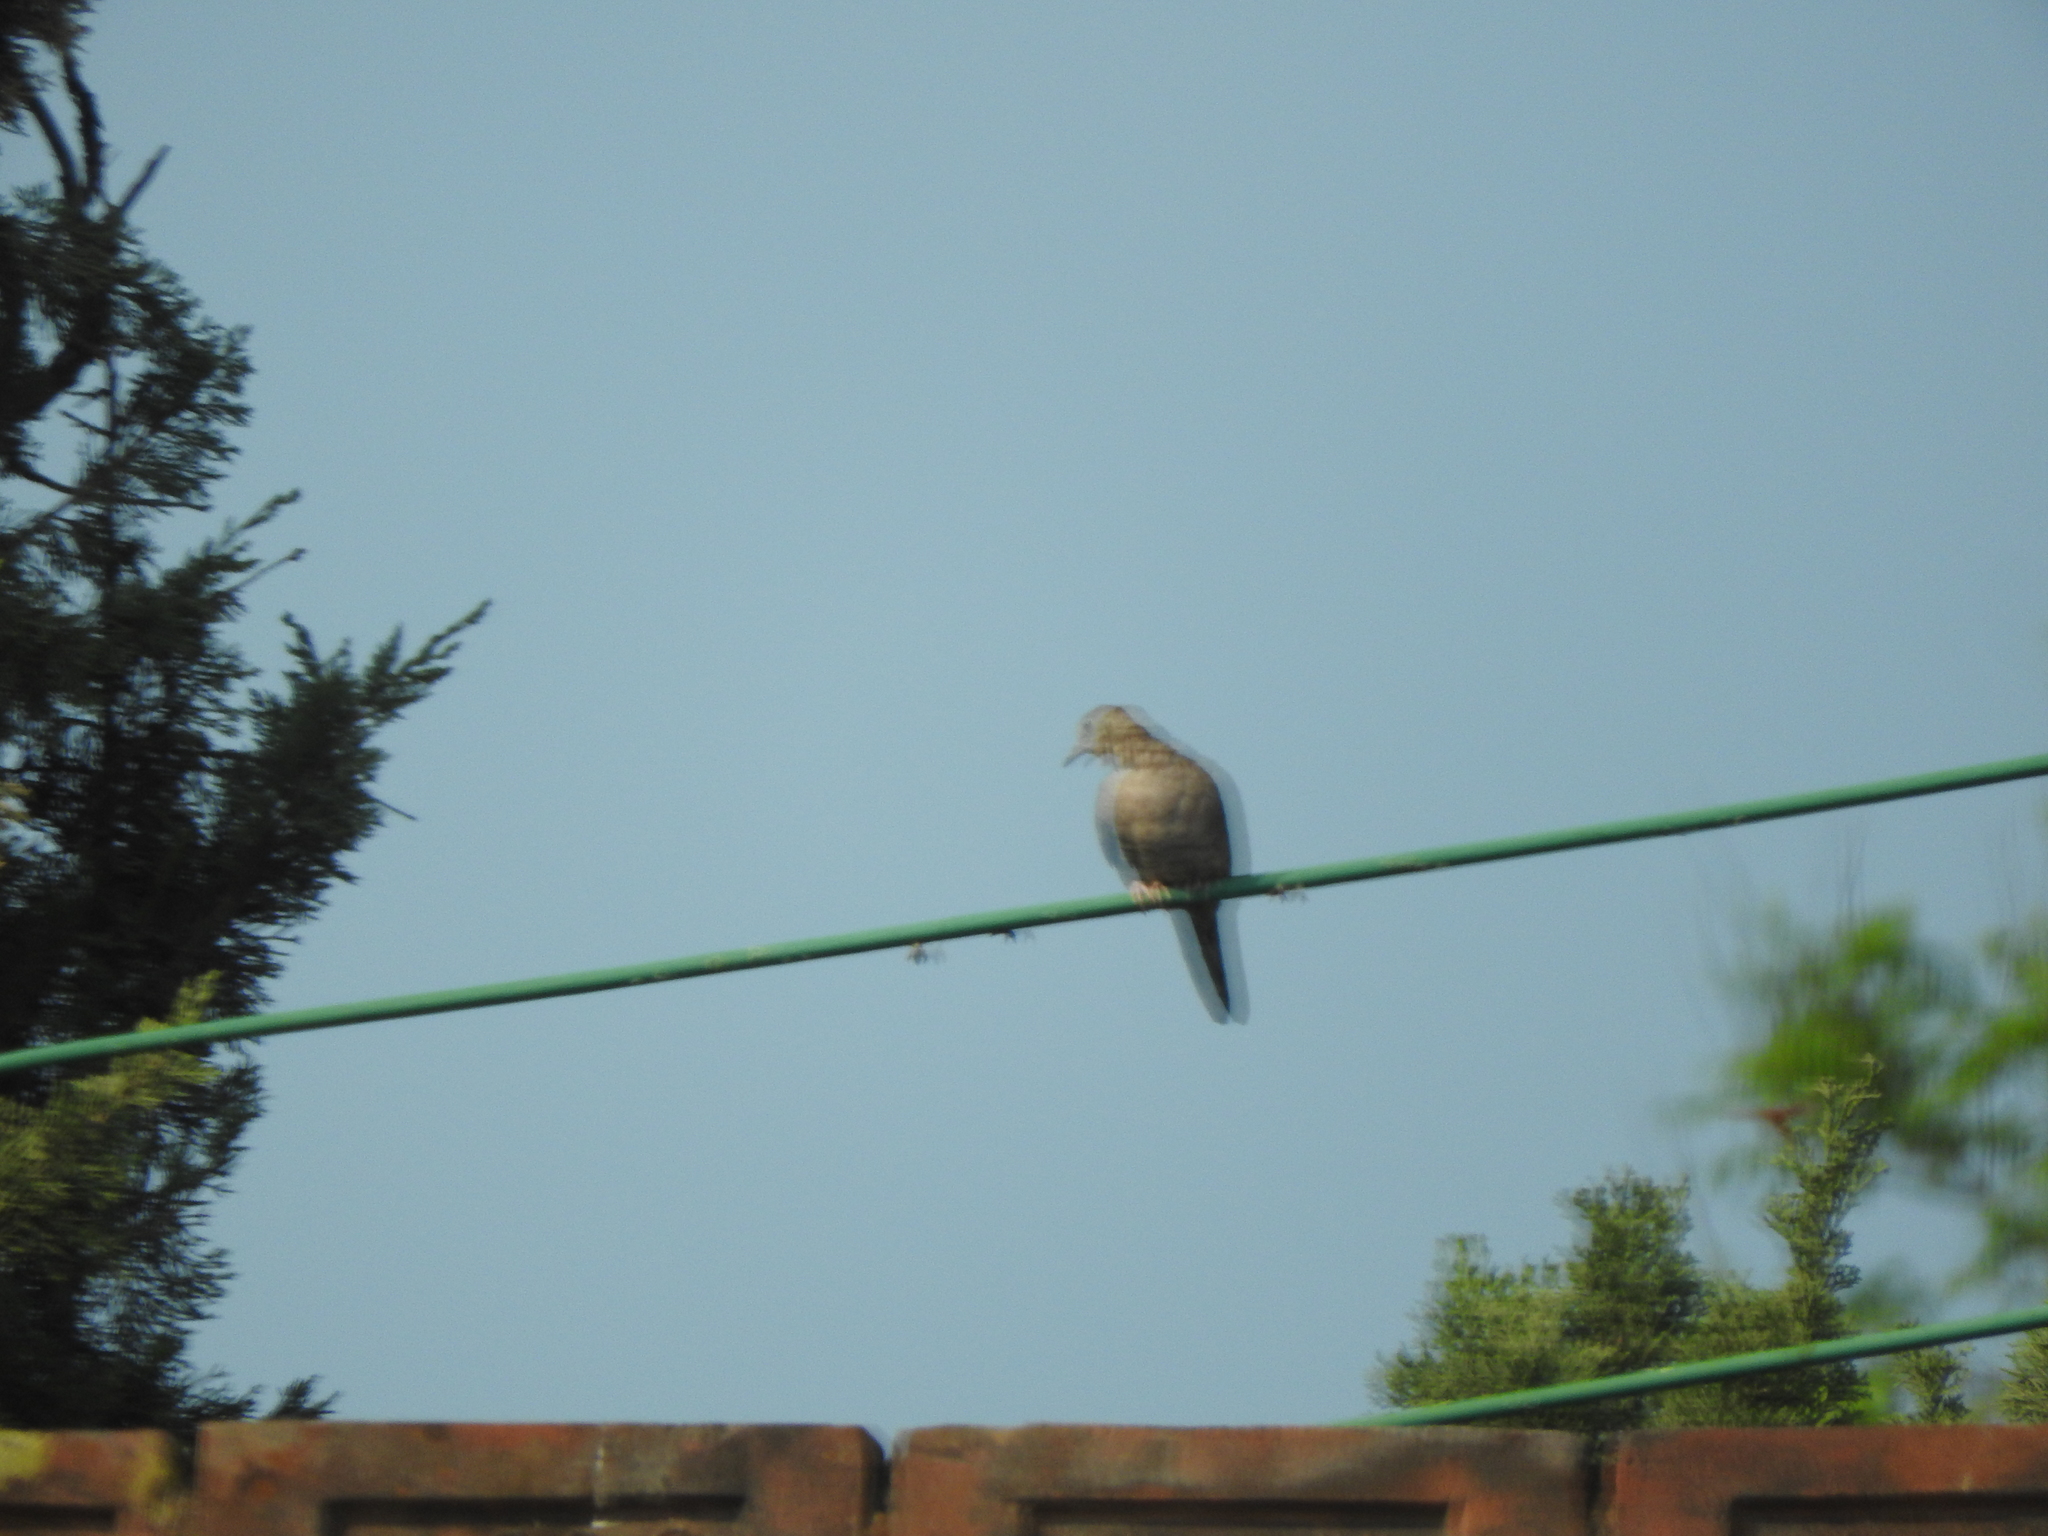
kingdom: Animalia
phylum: Chordata
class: Aves
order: Columbiformes
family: Columbidae
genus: Columbina
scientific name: Columbina inca
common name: Inca dove
